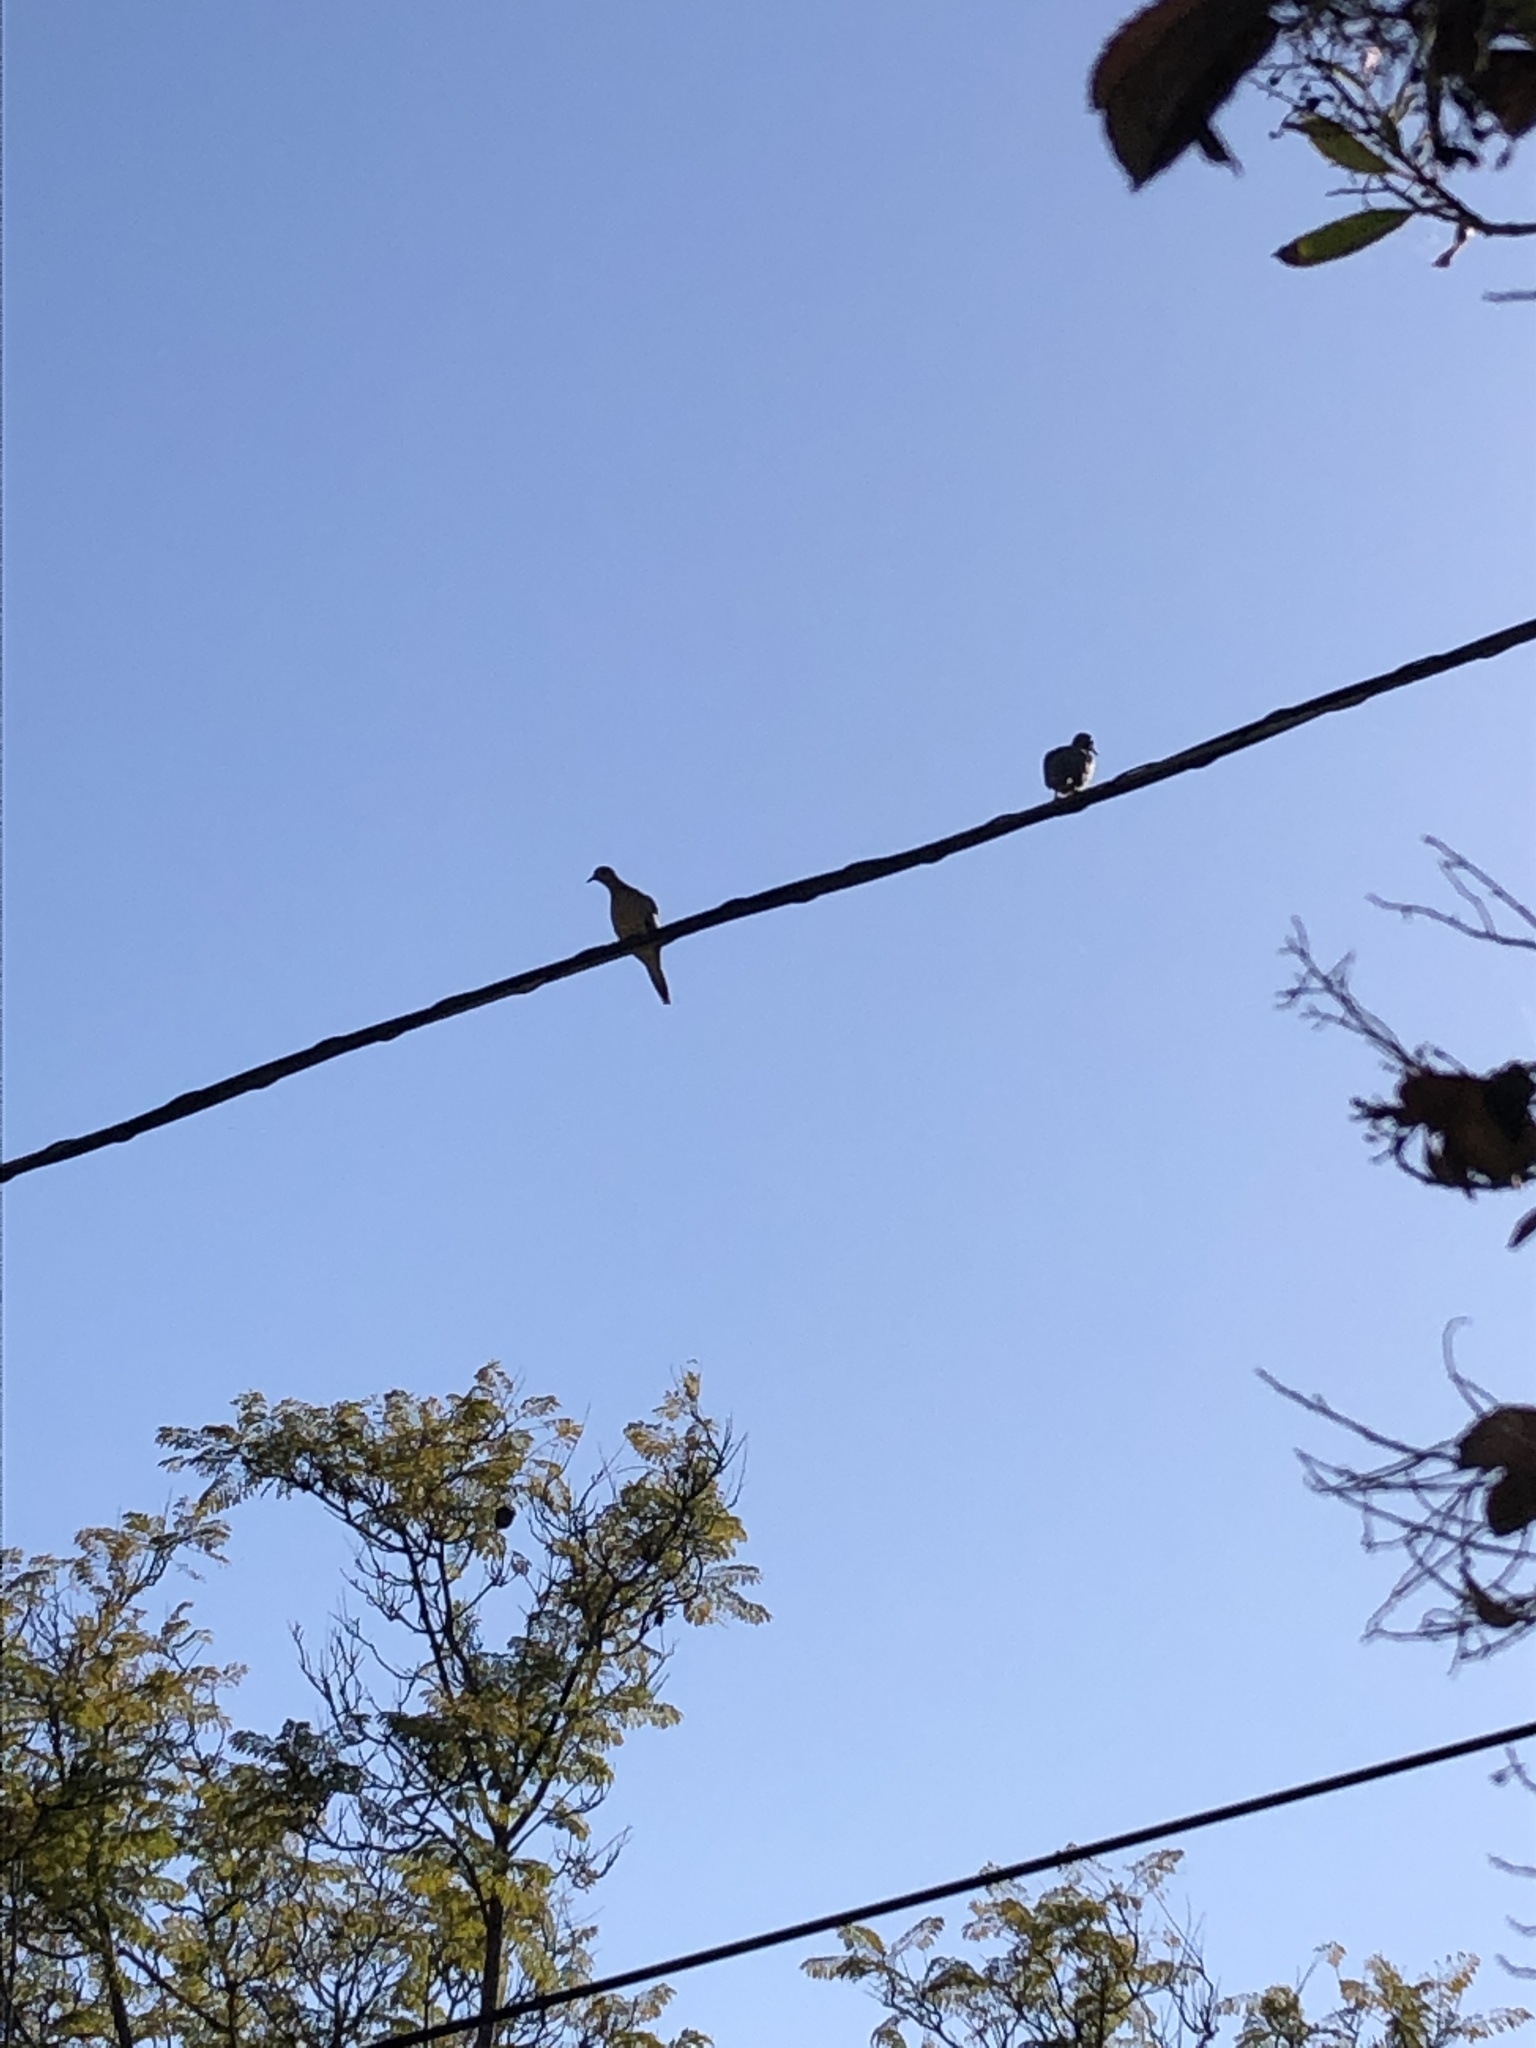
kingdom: Animalia
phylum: Chordata
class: Aves
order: Columbiformes
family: Columbidae
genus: Zenaida
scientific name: Zenaida macroura
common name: Mourning dove
